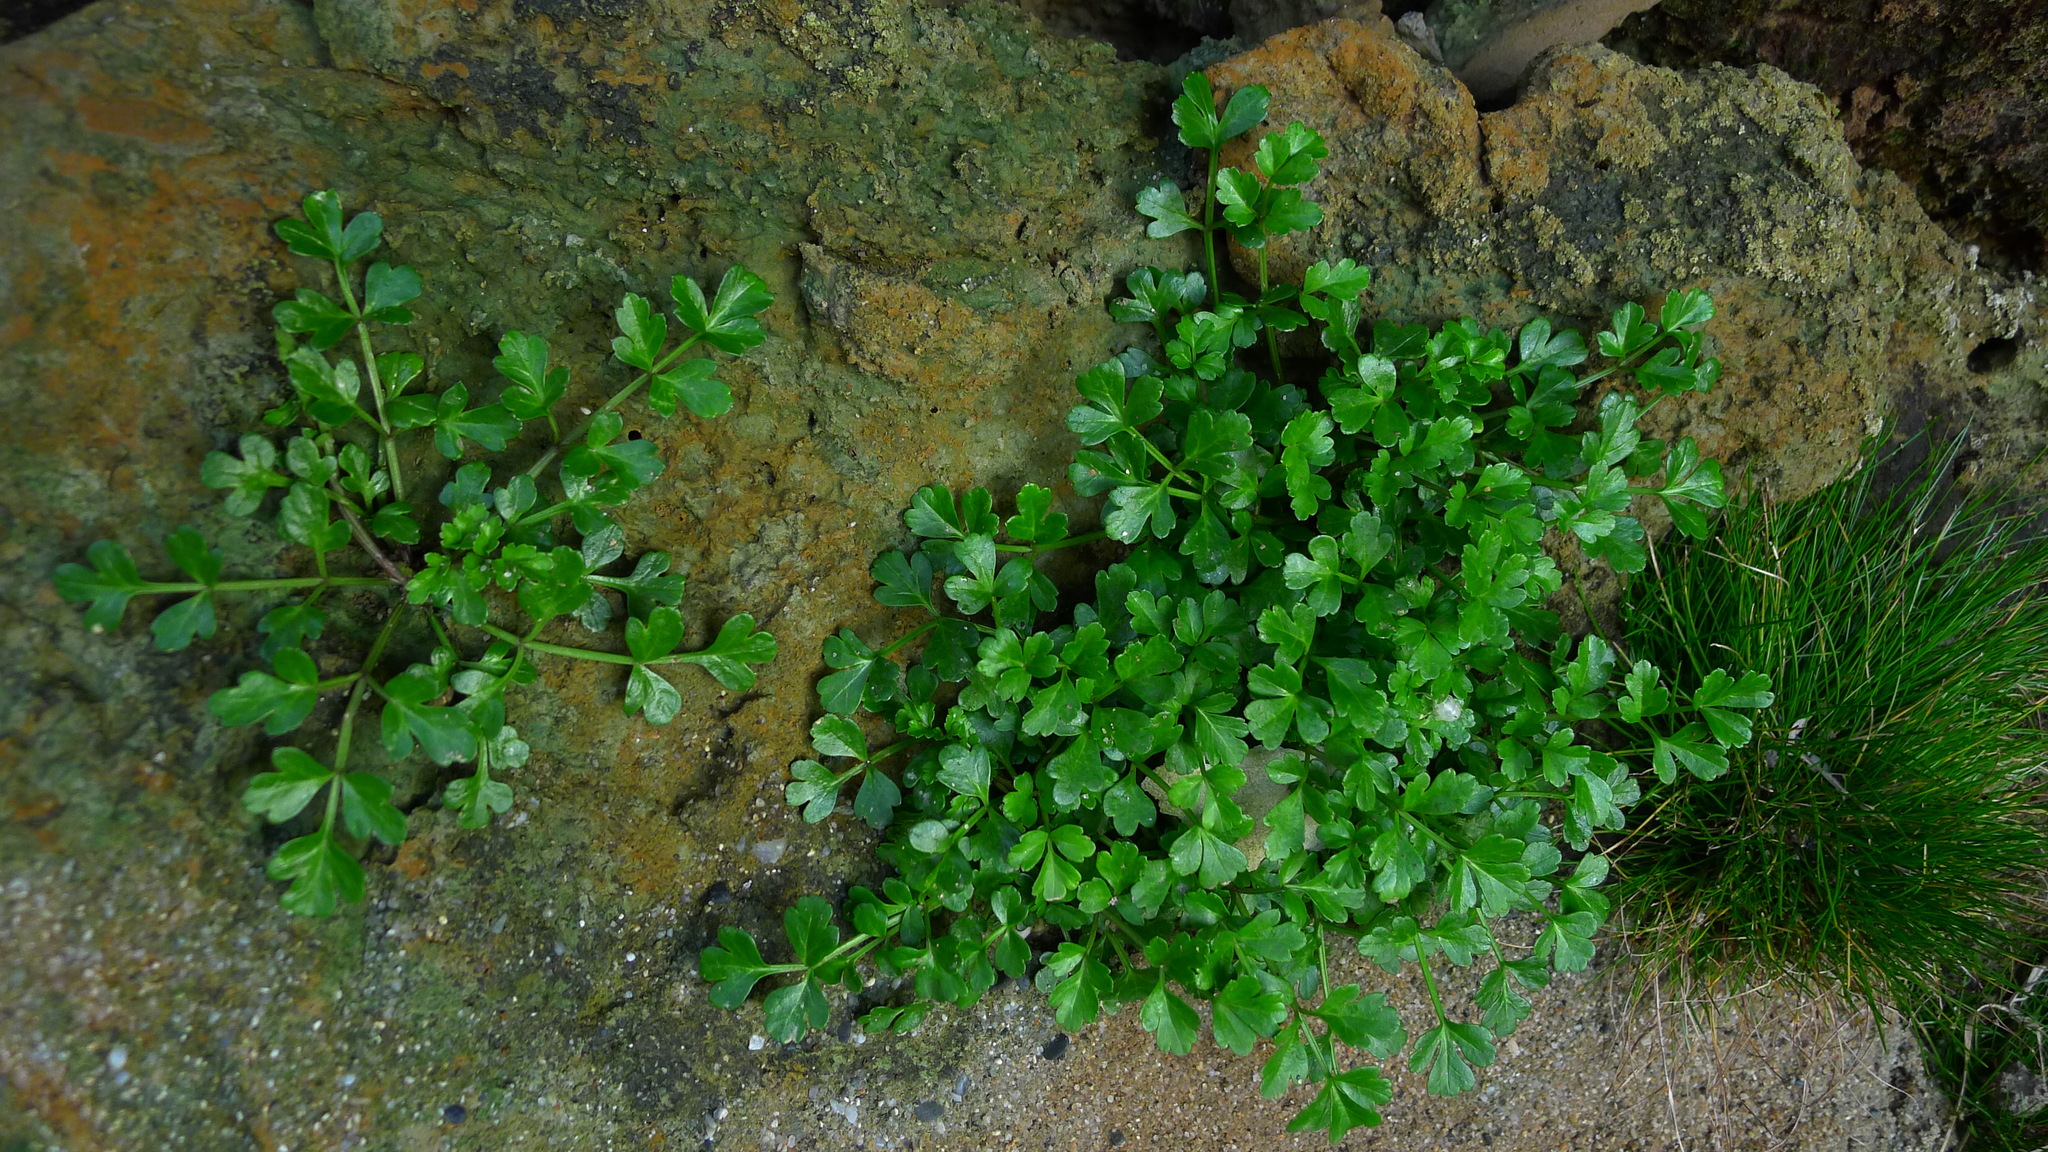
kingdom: Plantae
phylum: Tracheophyta
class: Magnoliopsida
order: Apiales
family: Apiaceae
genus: Apium
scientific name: Apium prostratum
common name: Prostrate marshwort
